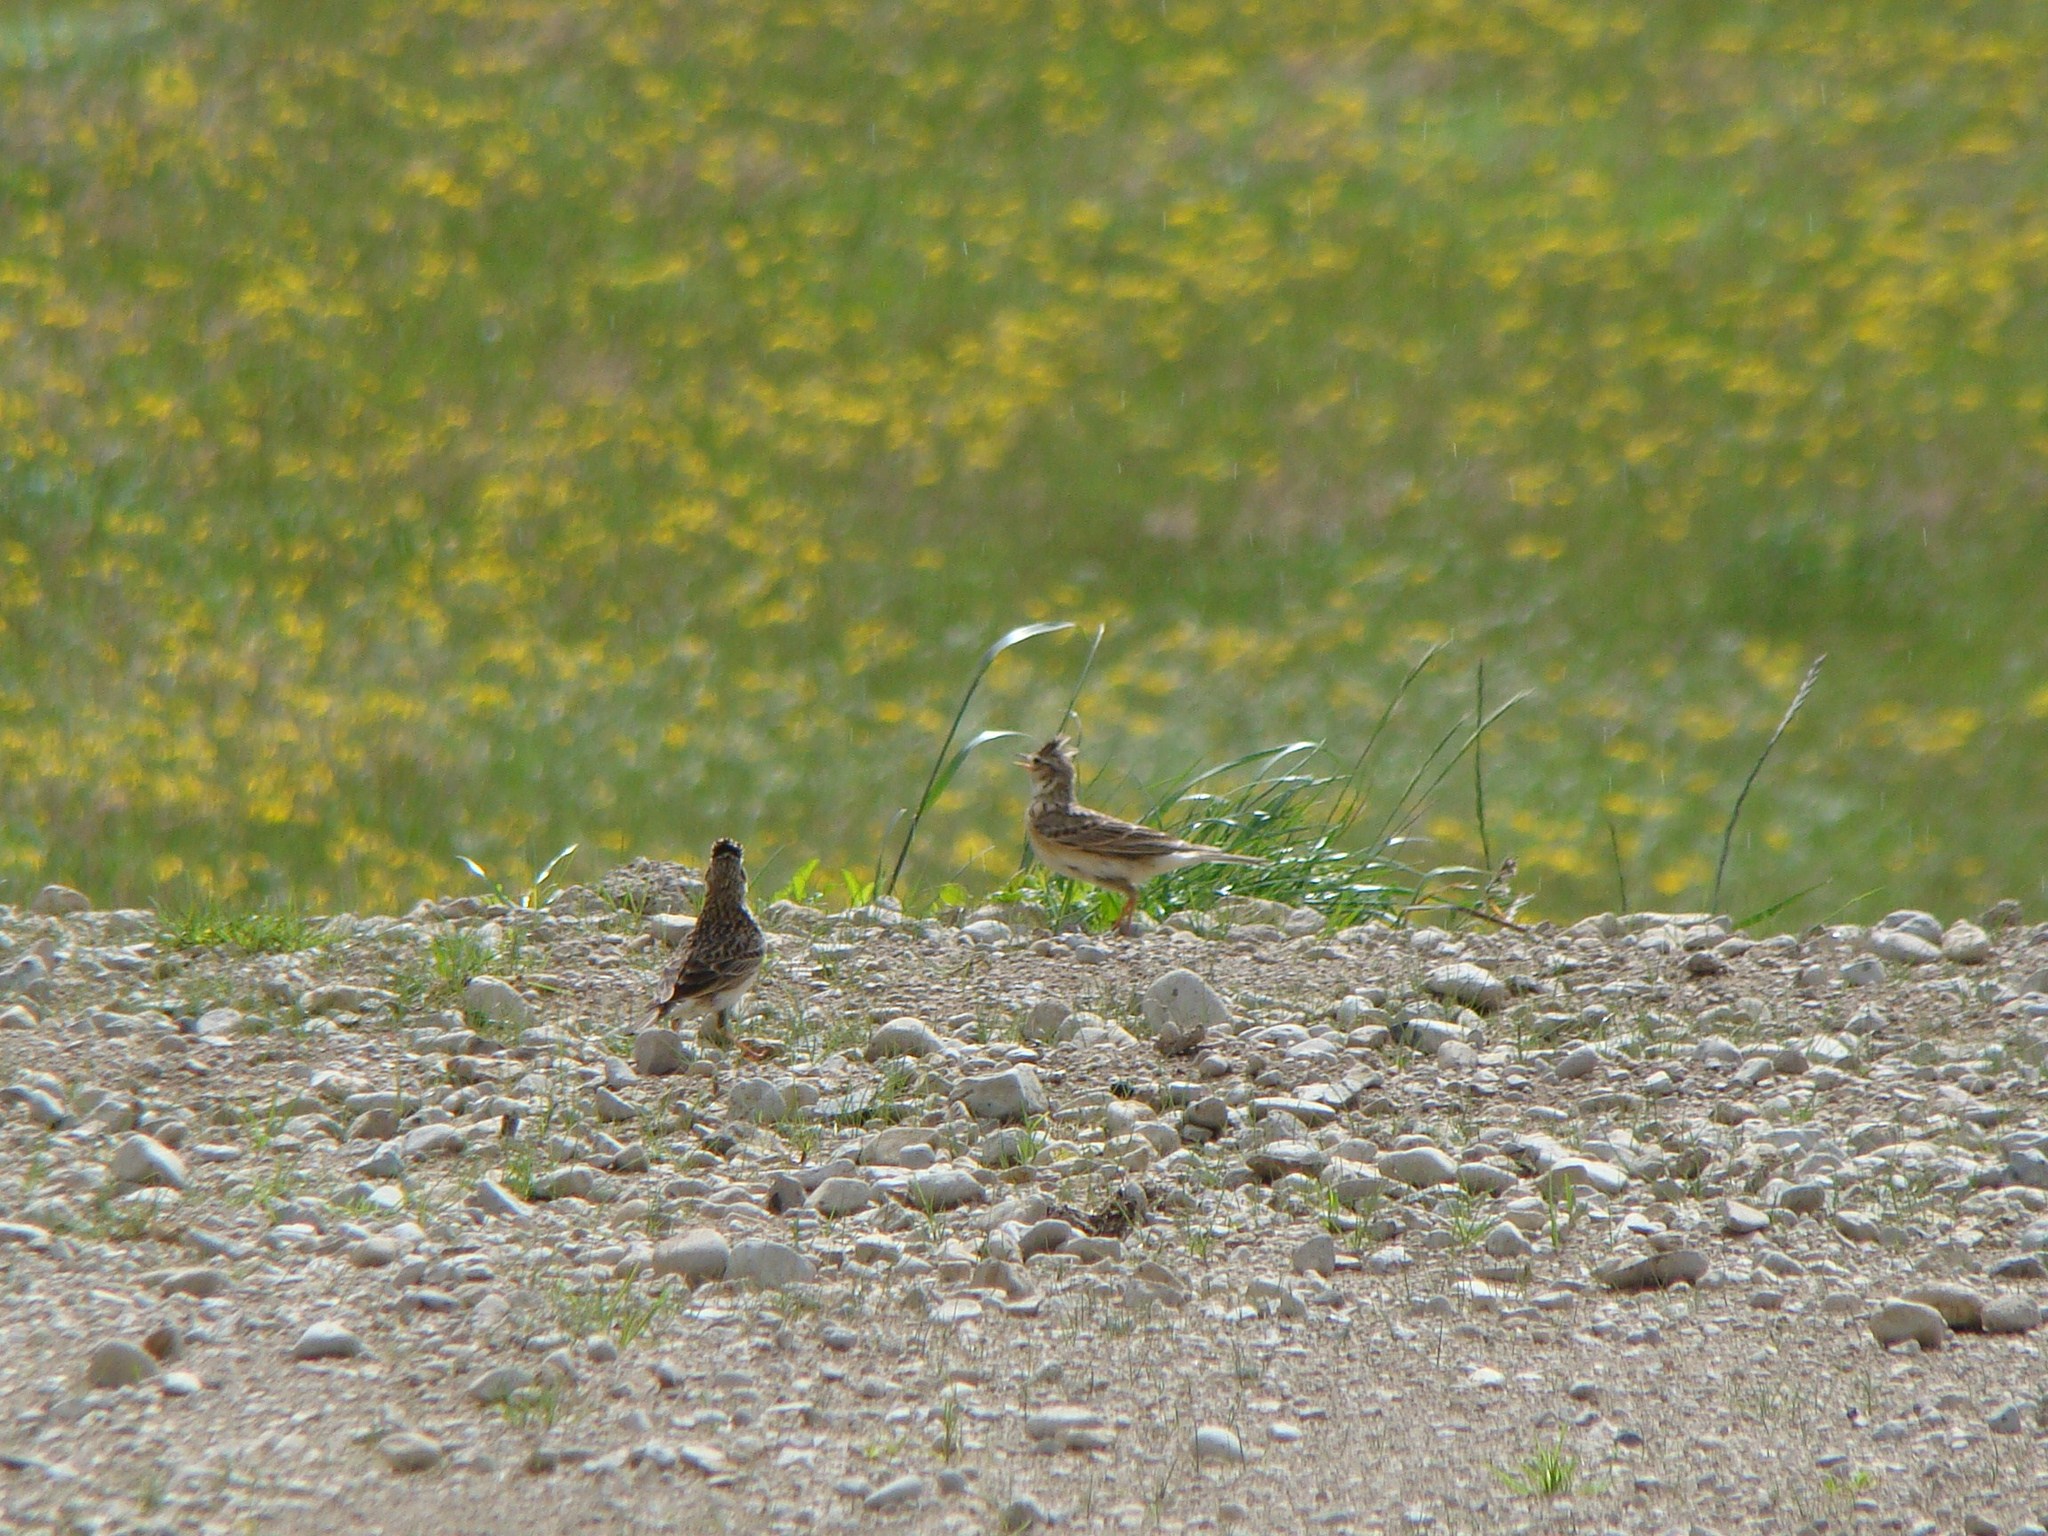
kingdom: Animalia
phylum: Chordata
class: Aves
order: Passeriformes
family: Alaudidae
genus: Alauda
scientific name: Alauda arvensis
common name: Eurasian skylark
